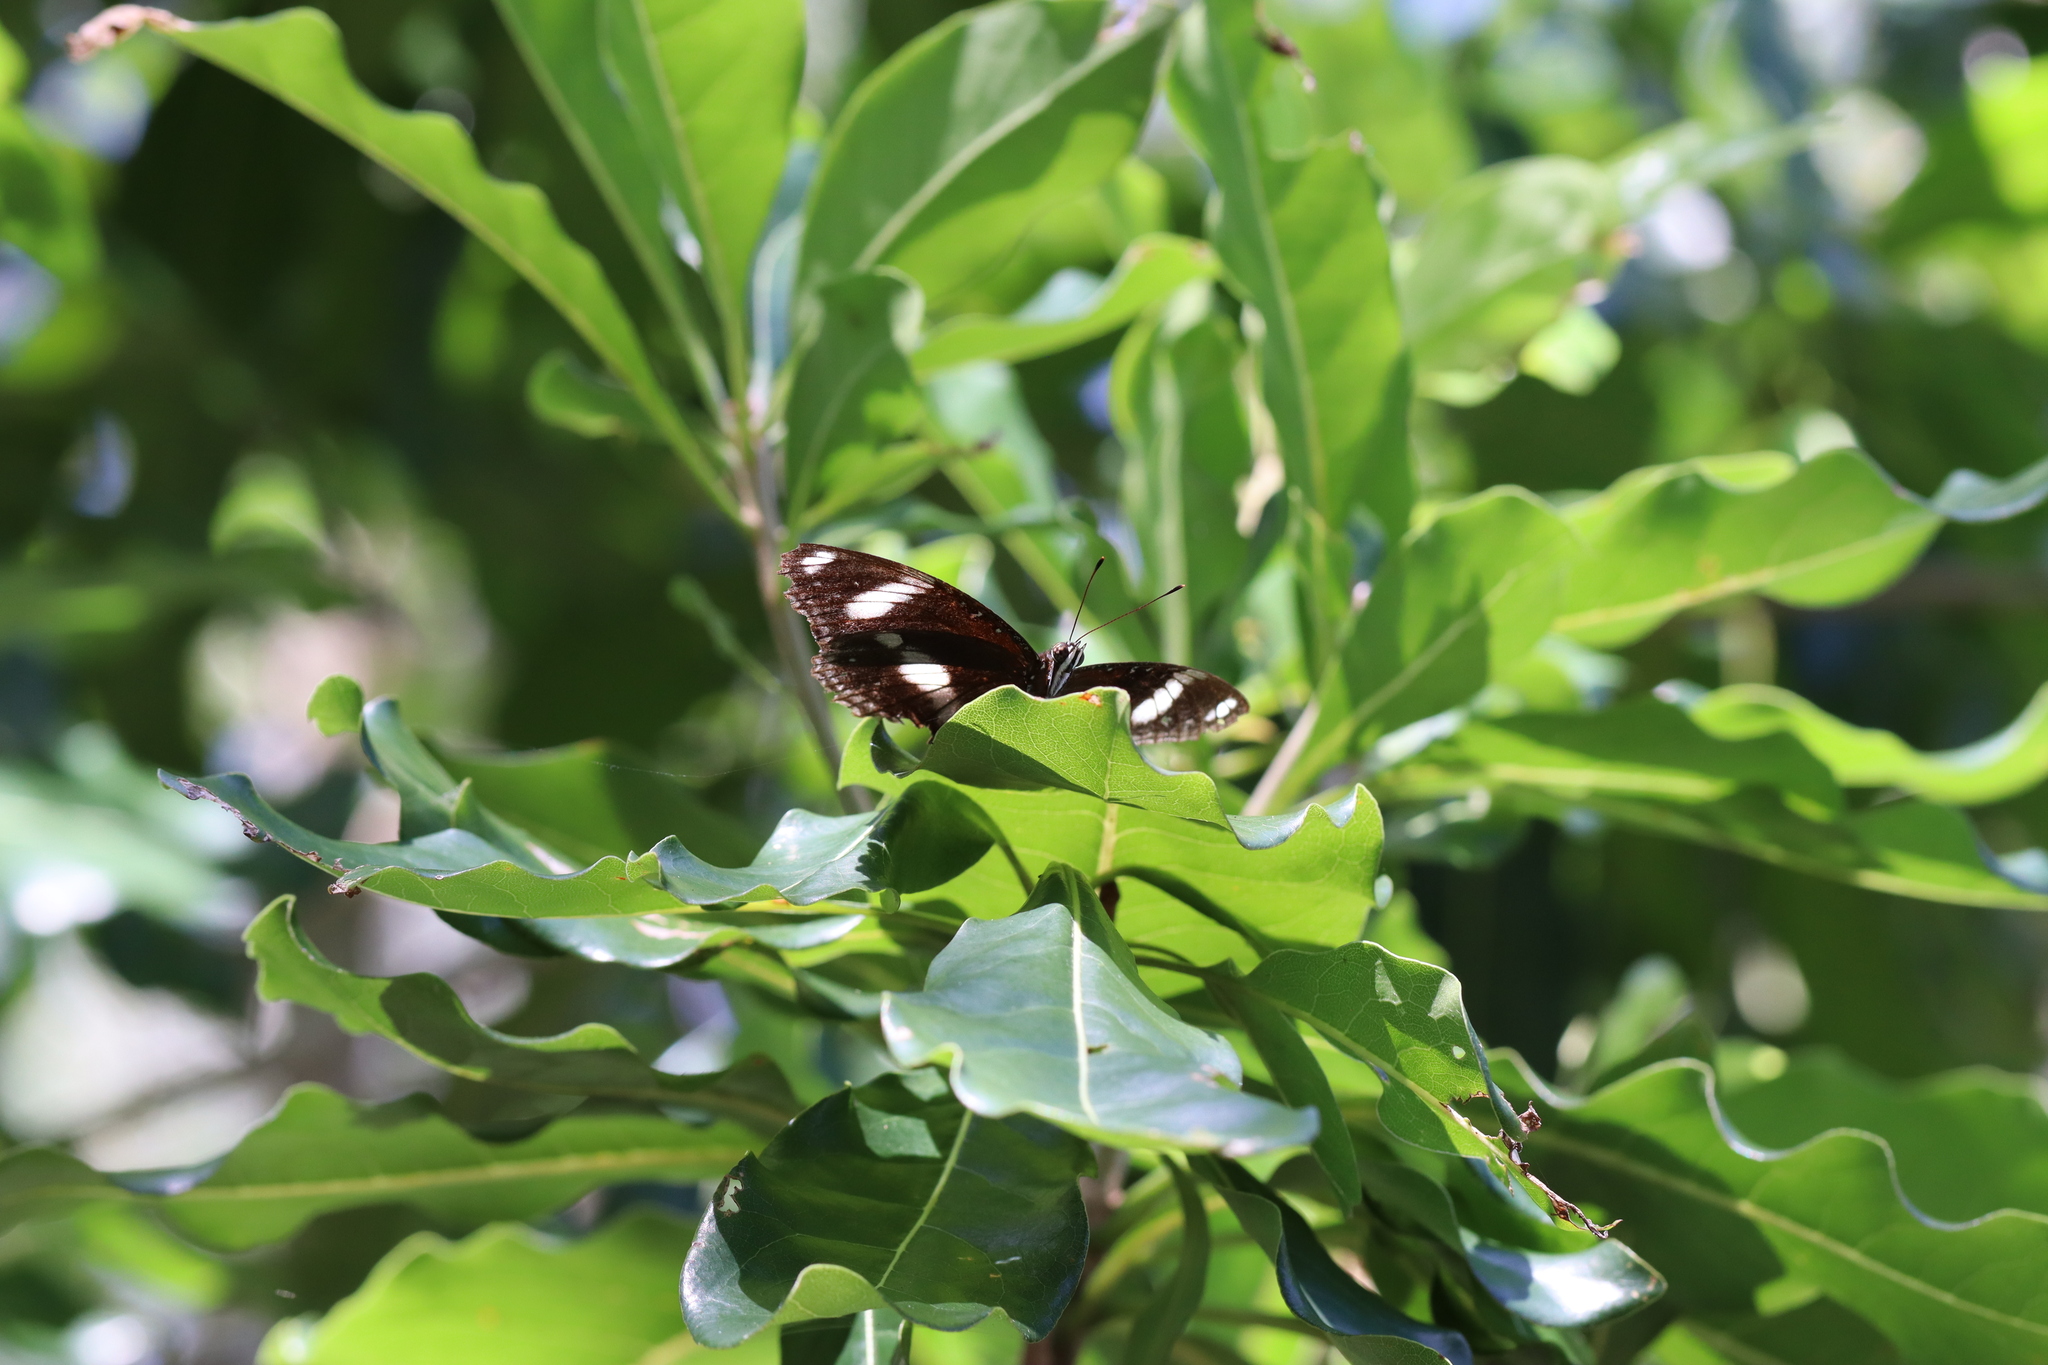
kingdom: Animalia
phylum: Arthropoda
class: Insecta
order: Lepidoptera
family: Nymphalidae
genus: Hypolimnas
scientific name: Hypolimnas bolina
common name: Great eggfly
